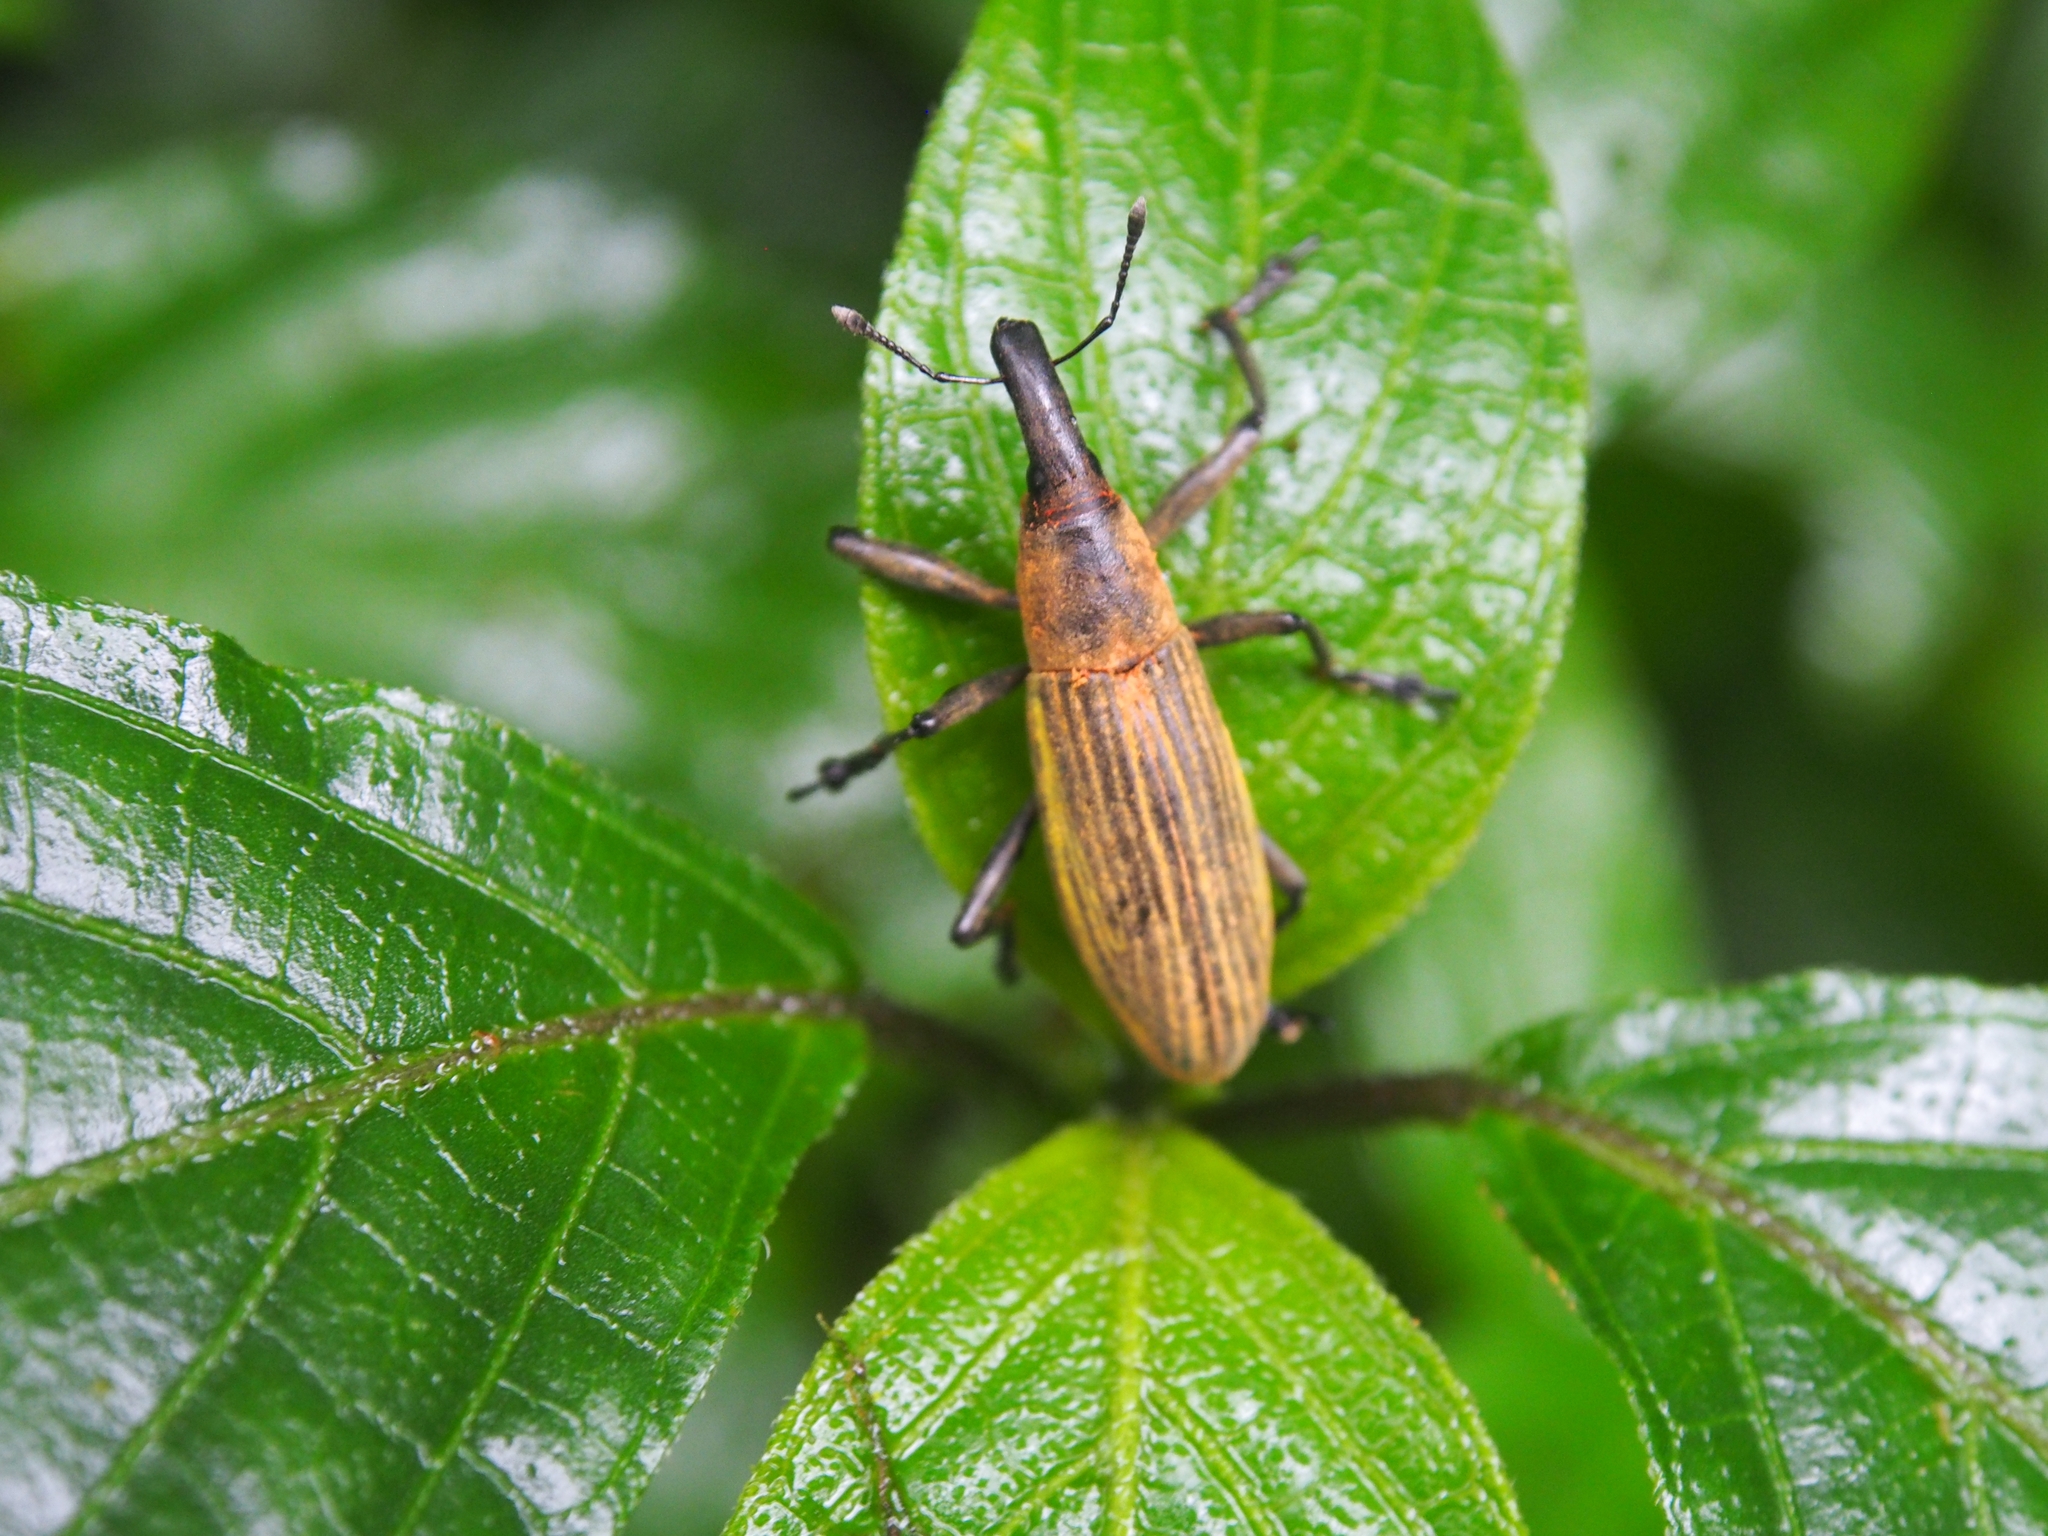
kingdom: Animalia
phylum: Arthropoda
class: Insecta
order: Coleoptera
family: Curculionidae
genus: Lixus
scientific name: Lixus apterus
